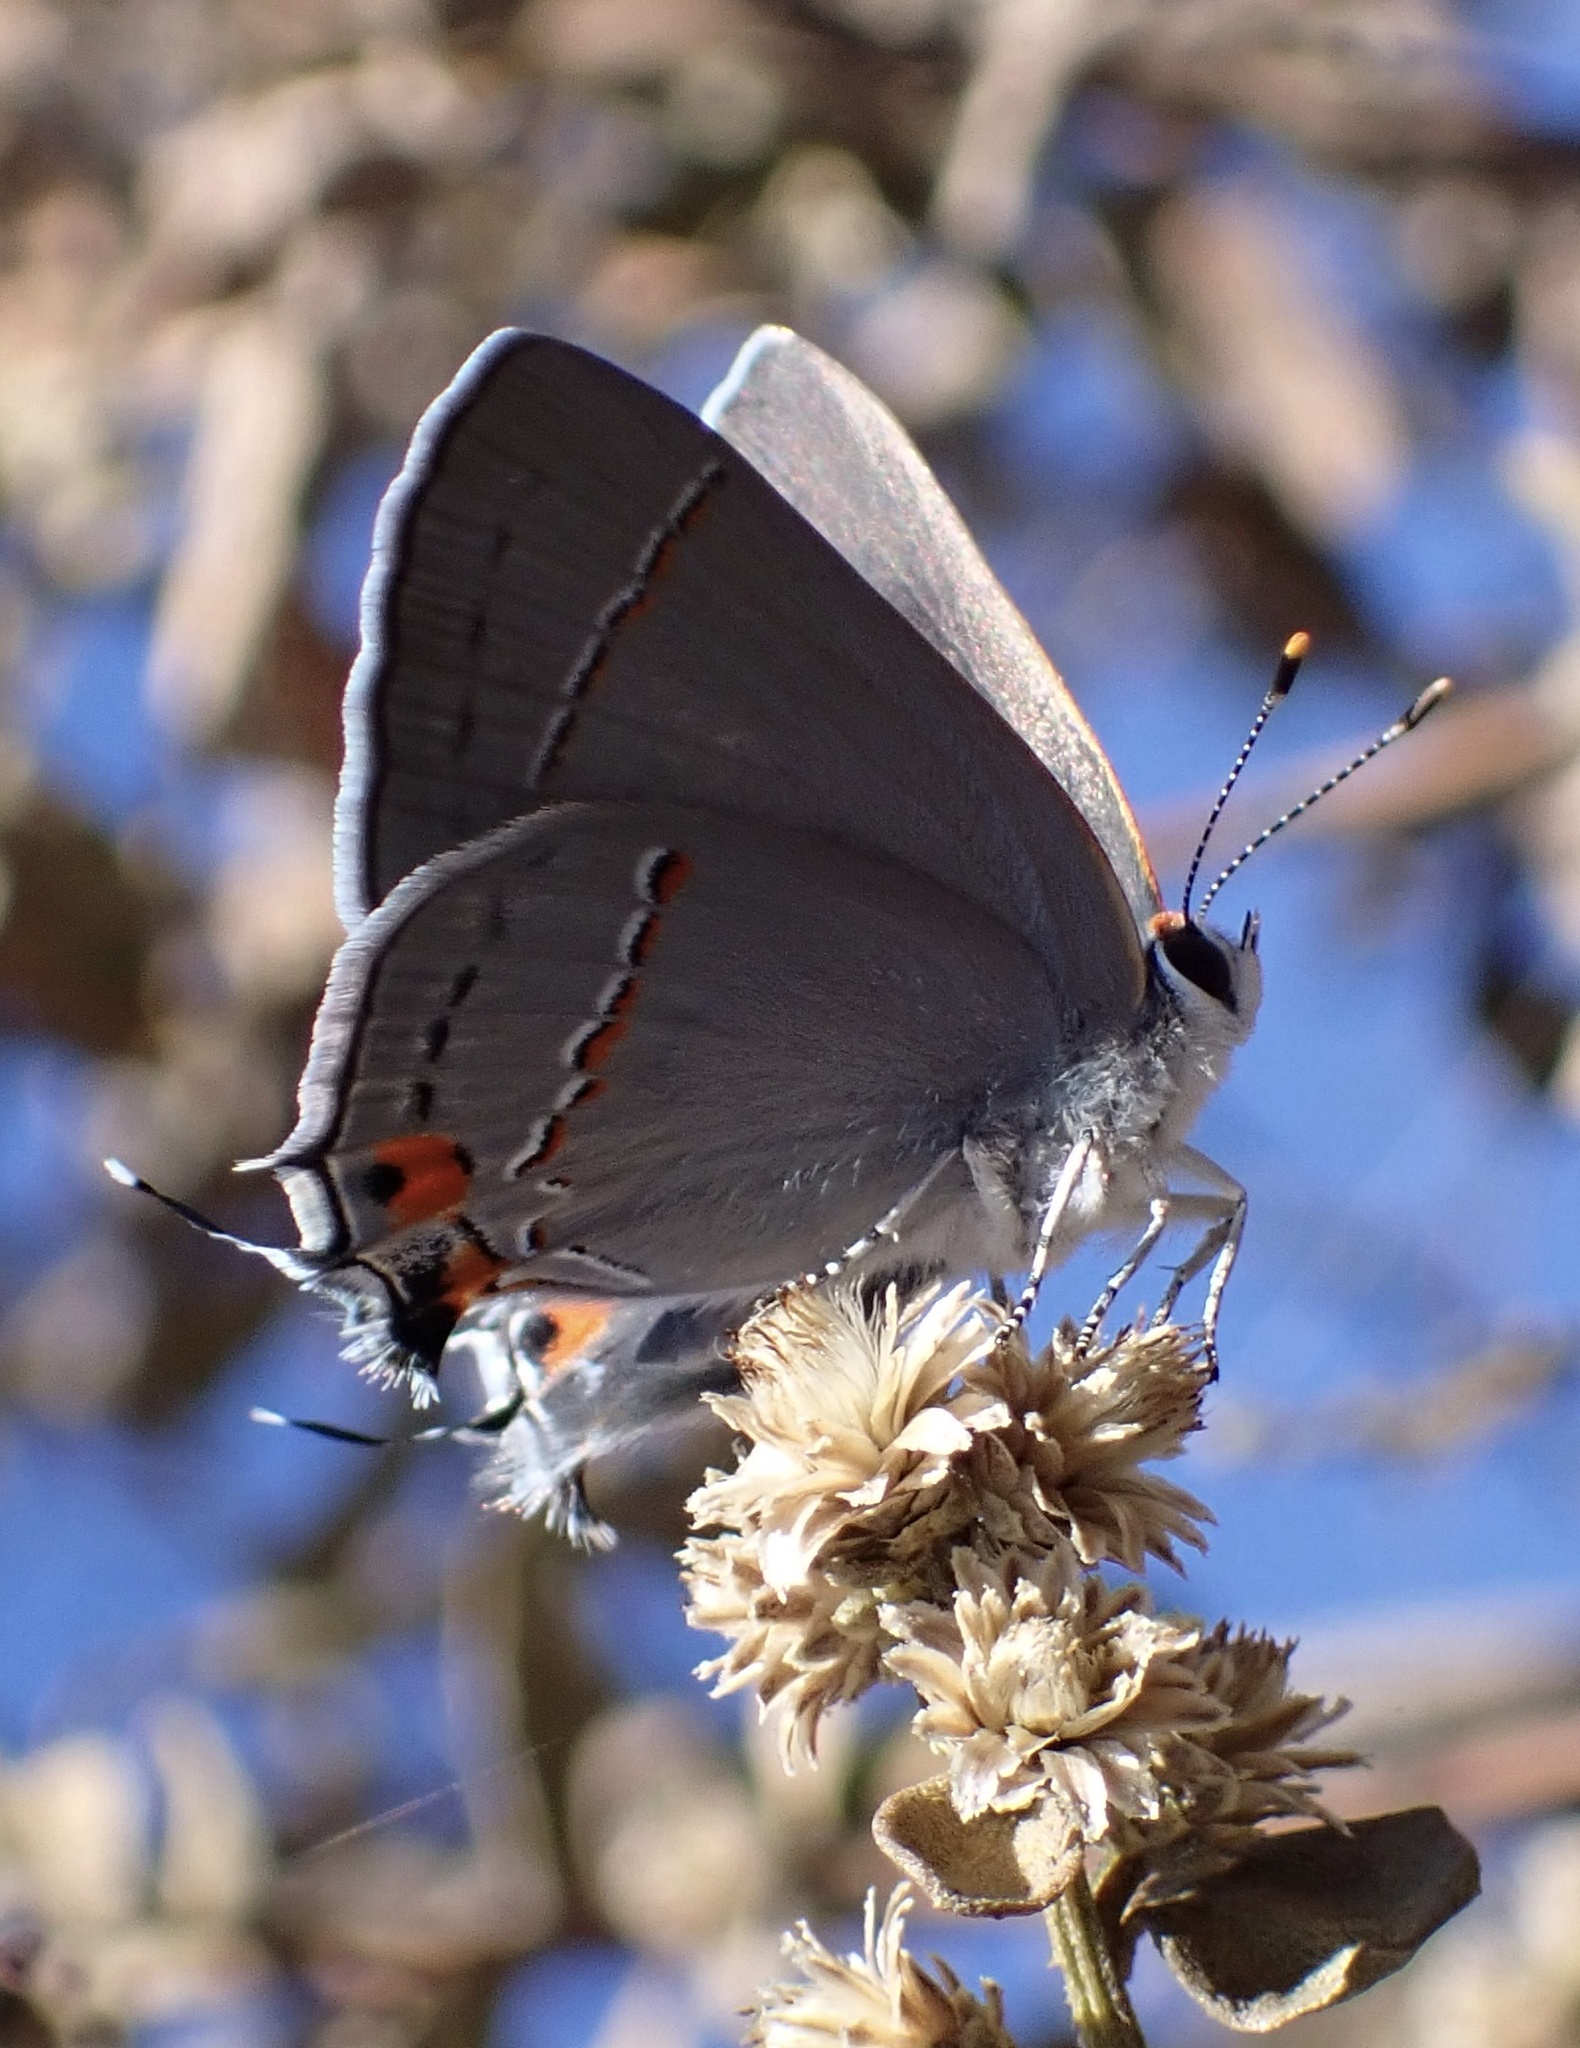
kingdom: Animalia
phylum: Arthropoda
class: Insecta
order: Lepidoptera
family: Lycaenidae
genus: Strymon
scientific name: Strymon melinus
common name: Gray hairstreak
